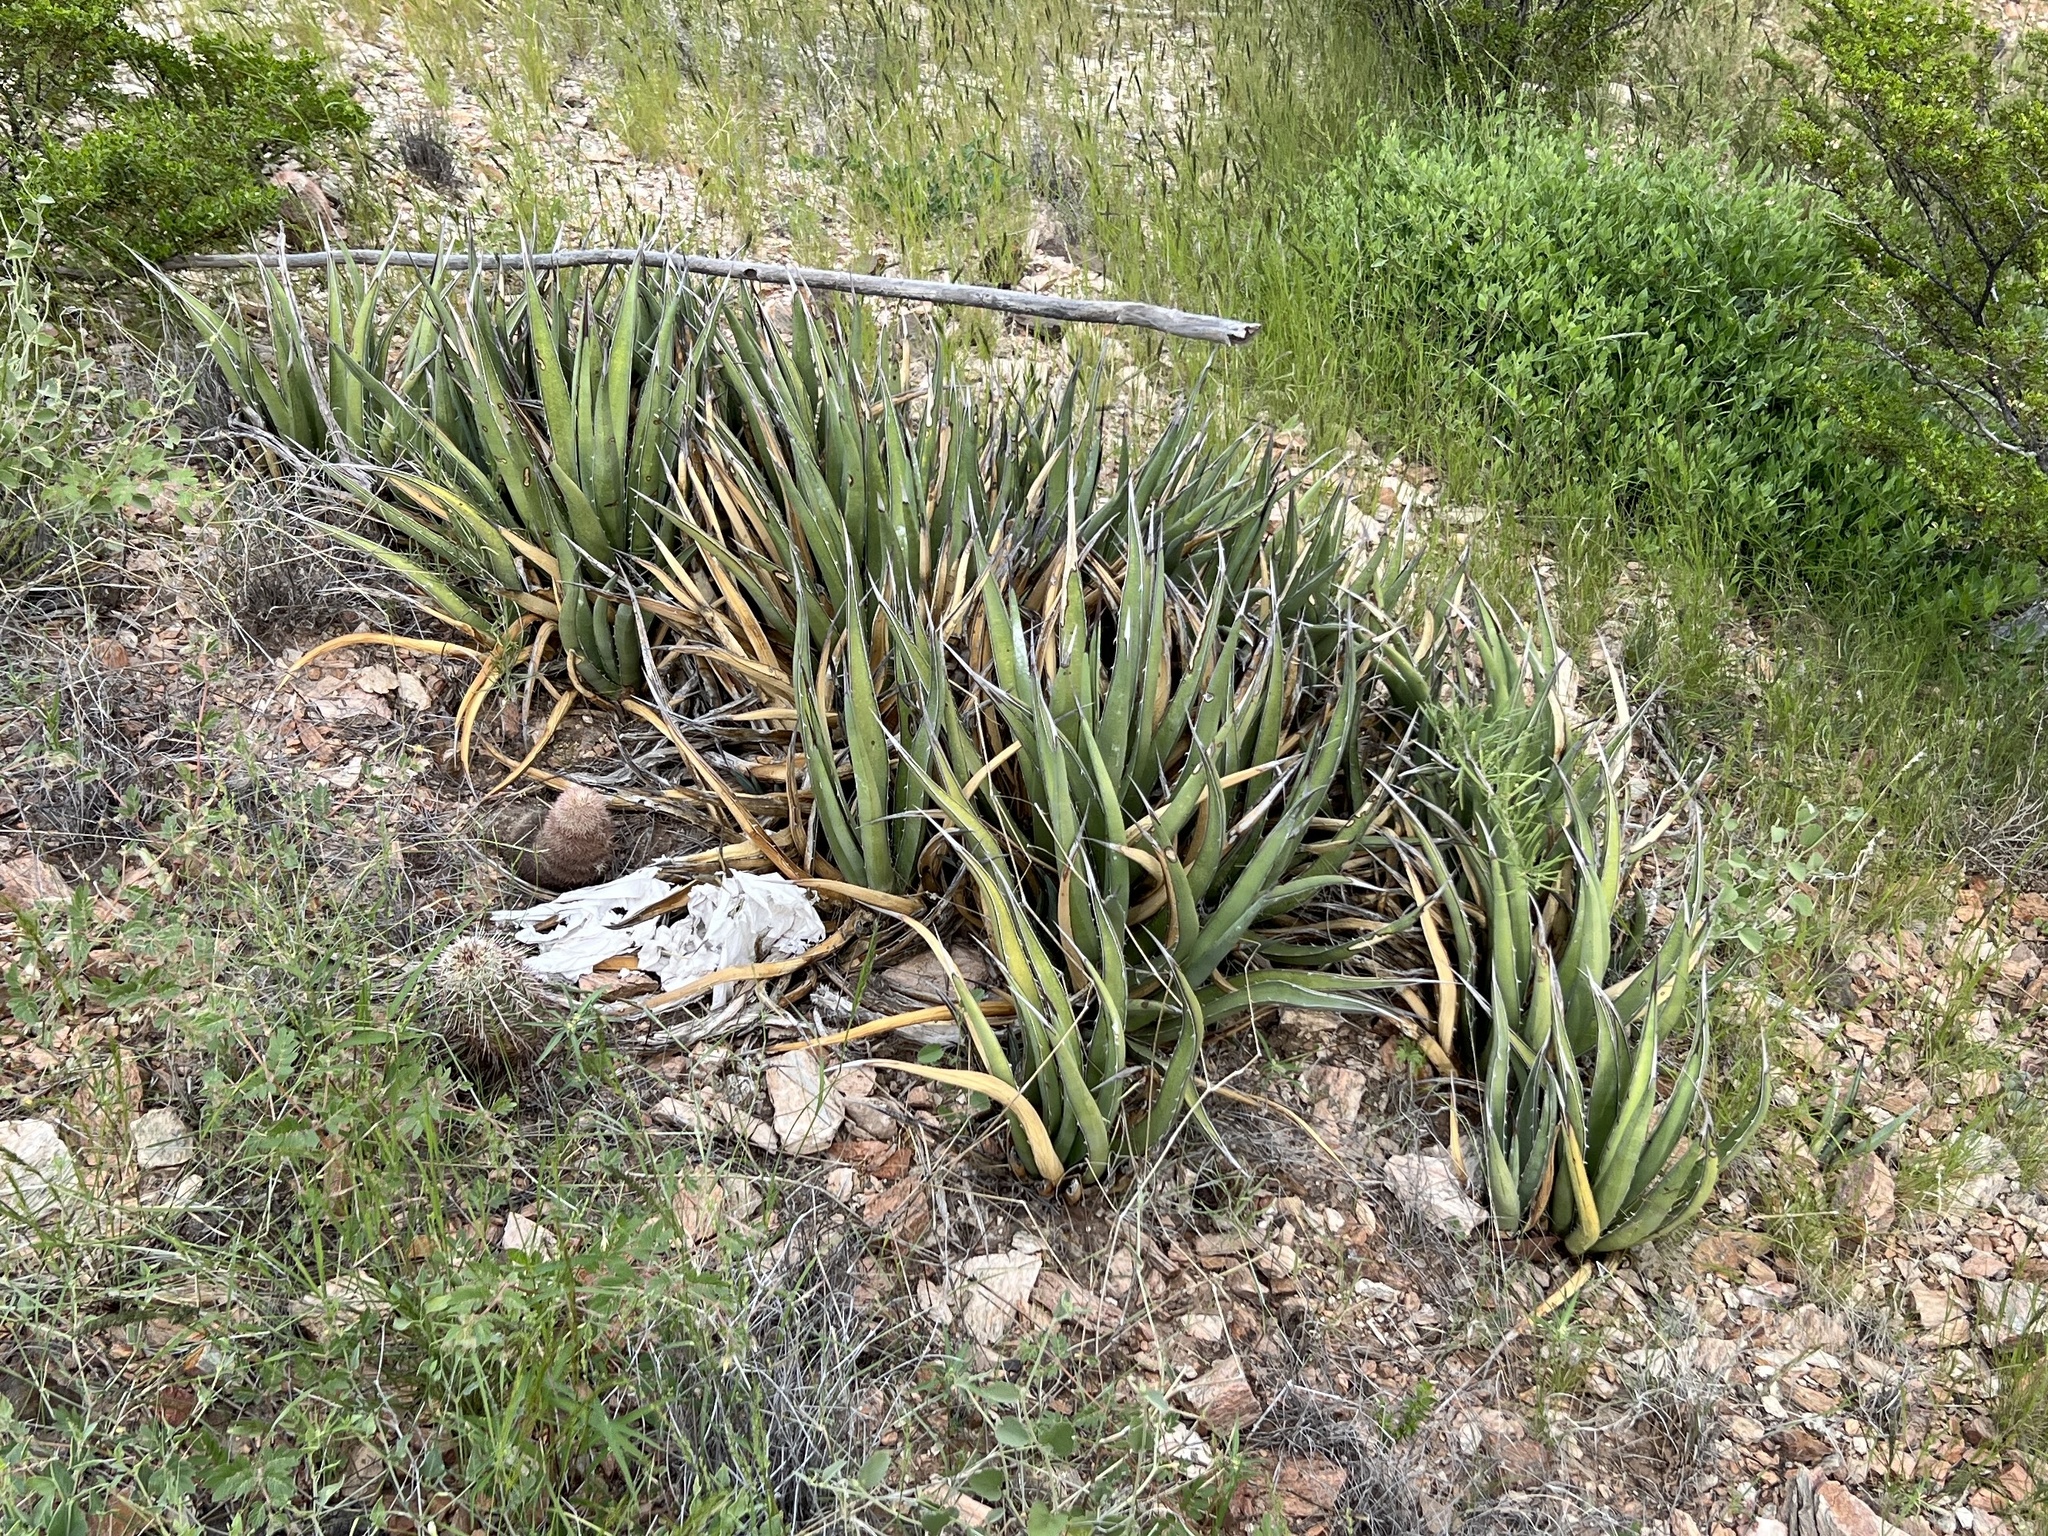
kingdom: Plantae
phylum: Tracheophyta
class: Liliopsida
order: Asparagales
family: Asparagaceae
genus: Agave
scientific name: Agave lechuguilla
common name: Lecheguilla agave
